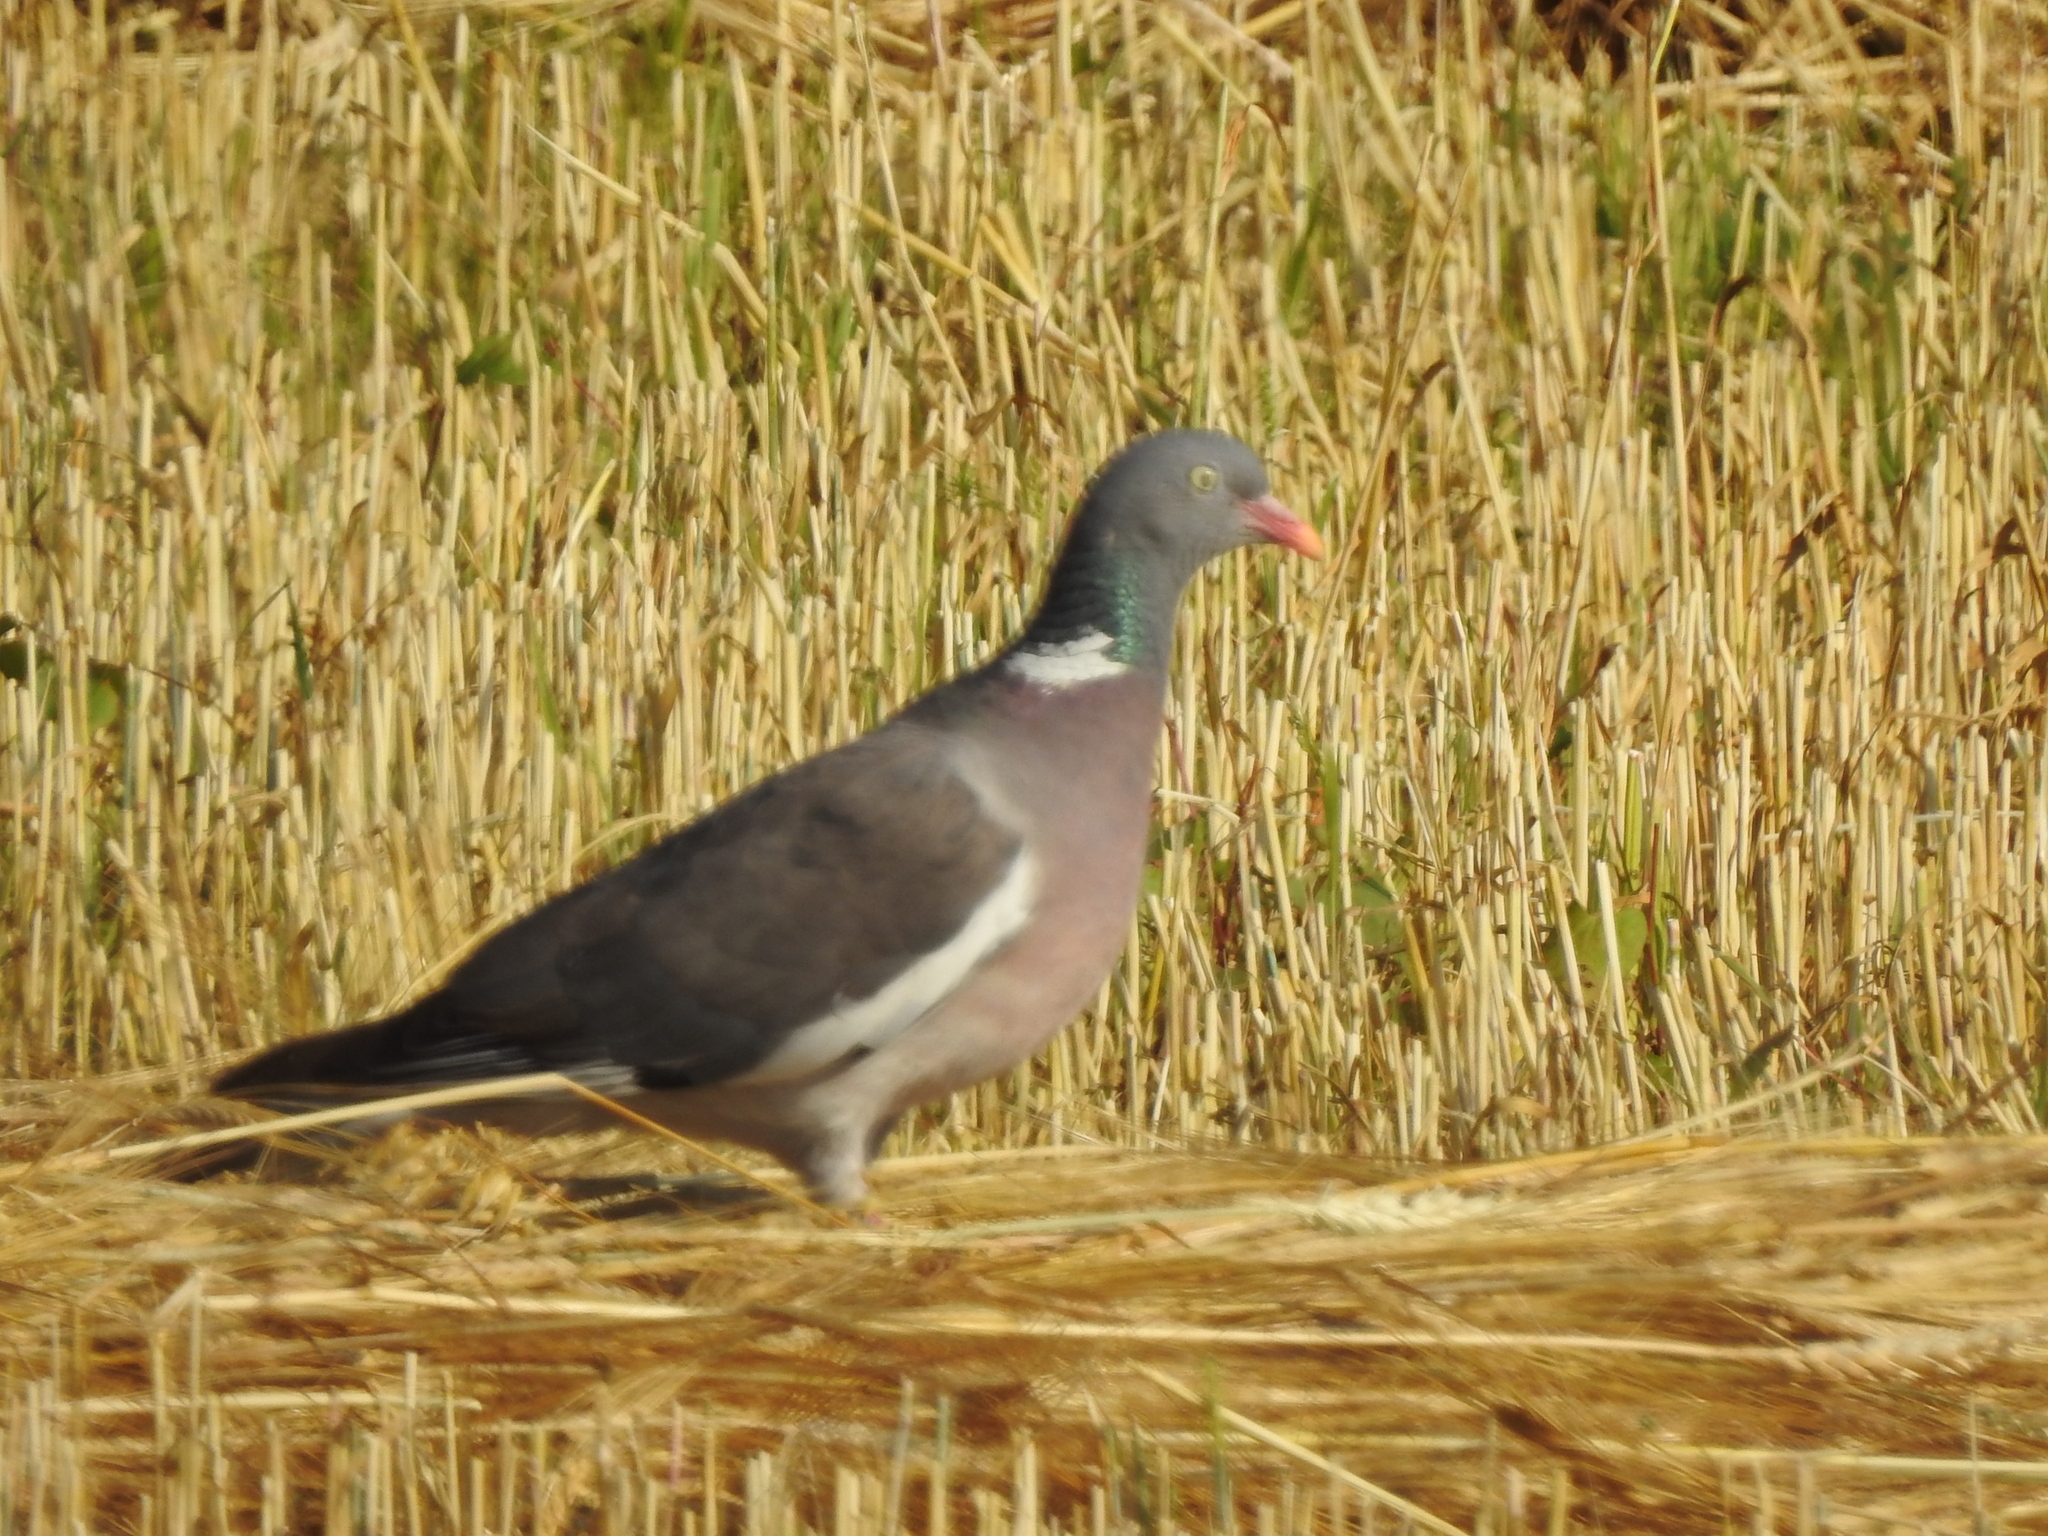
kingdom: Animalia
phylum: Chordata
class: Aves
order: Columbiformes
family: Columbidae
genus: Columba
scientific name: Columba palumbus
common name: Common wood pigeon
